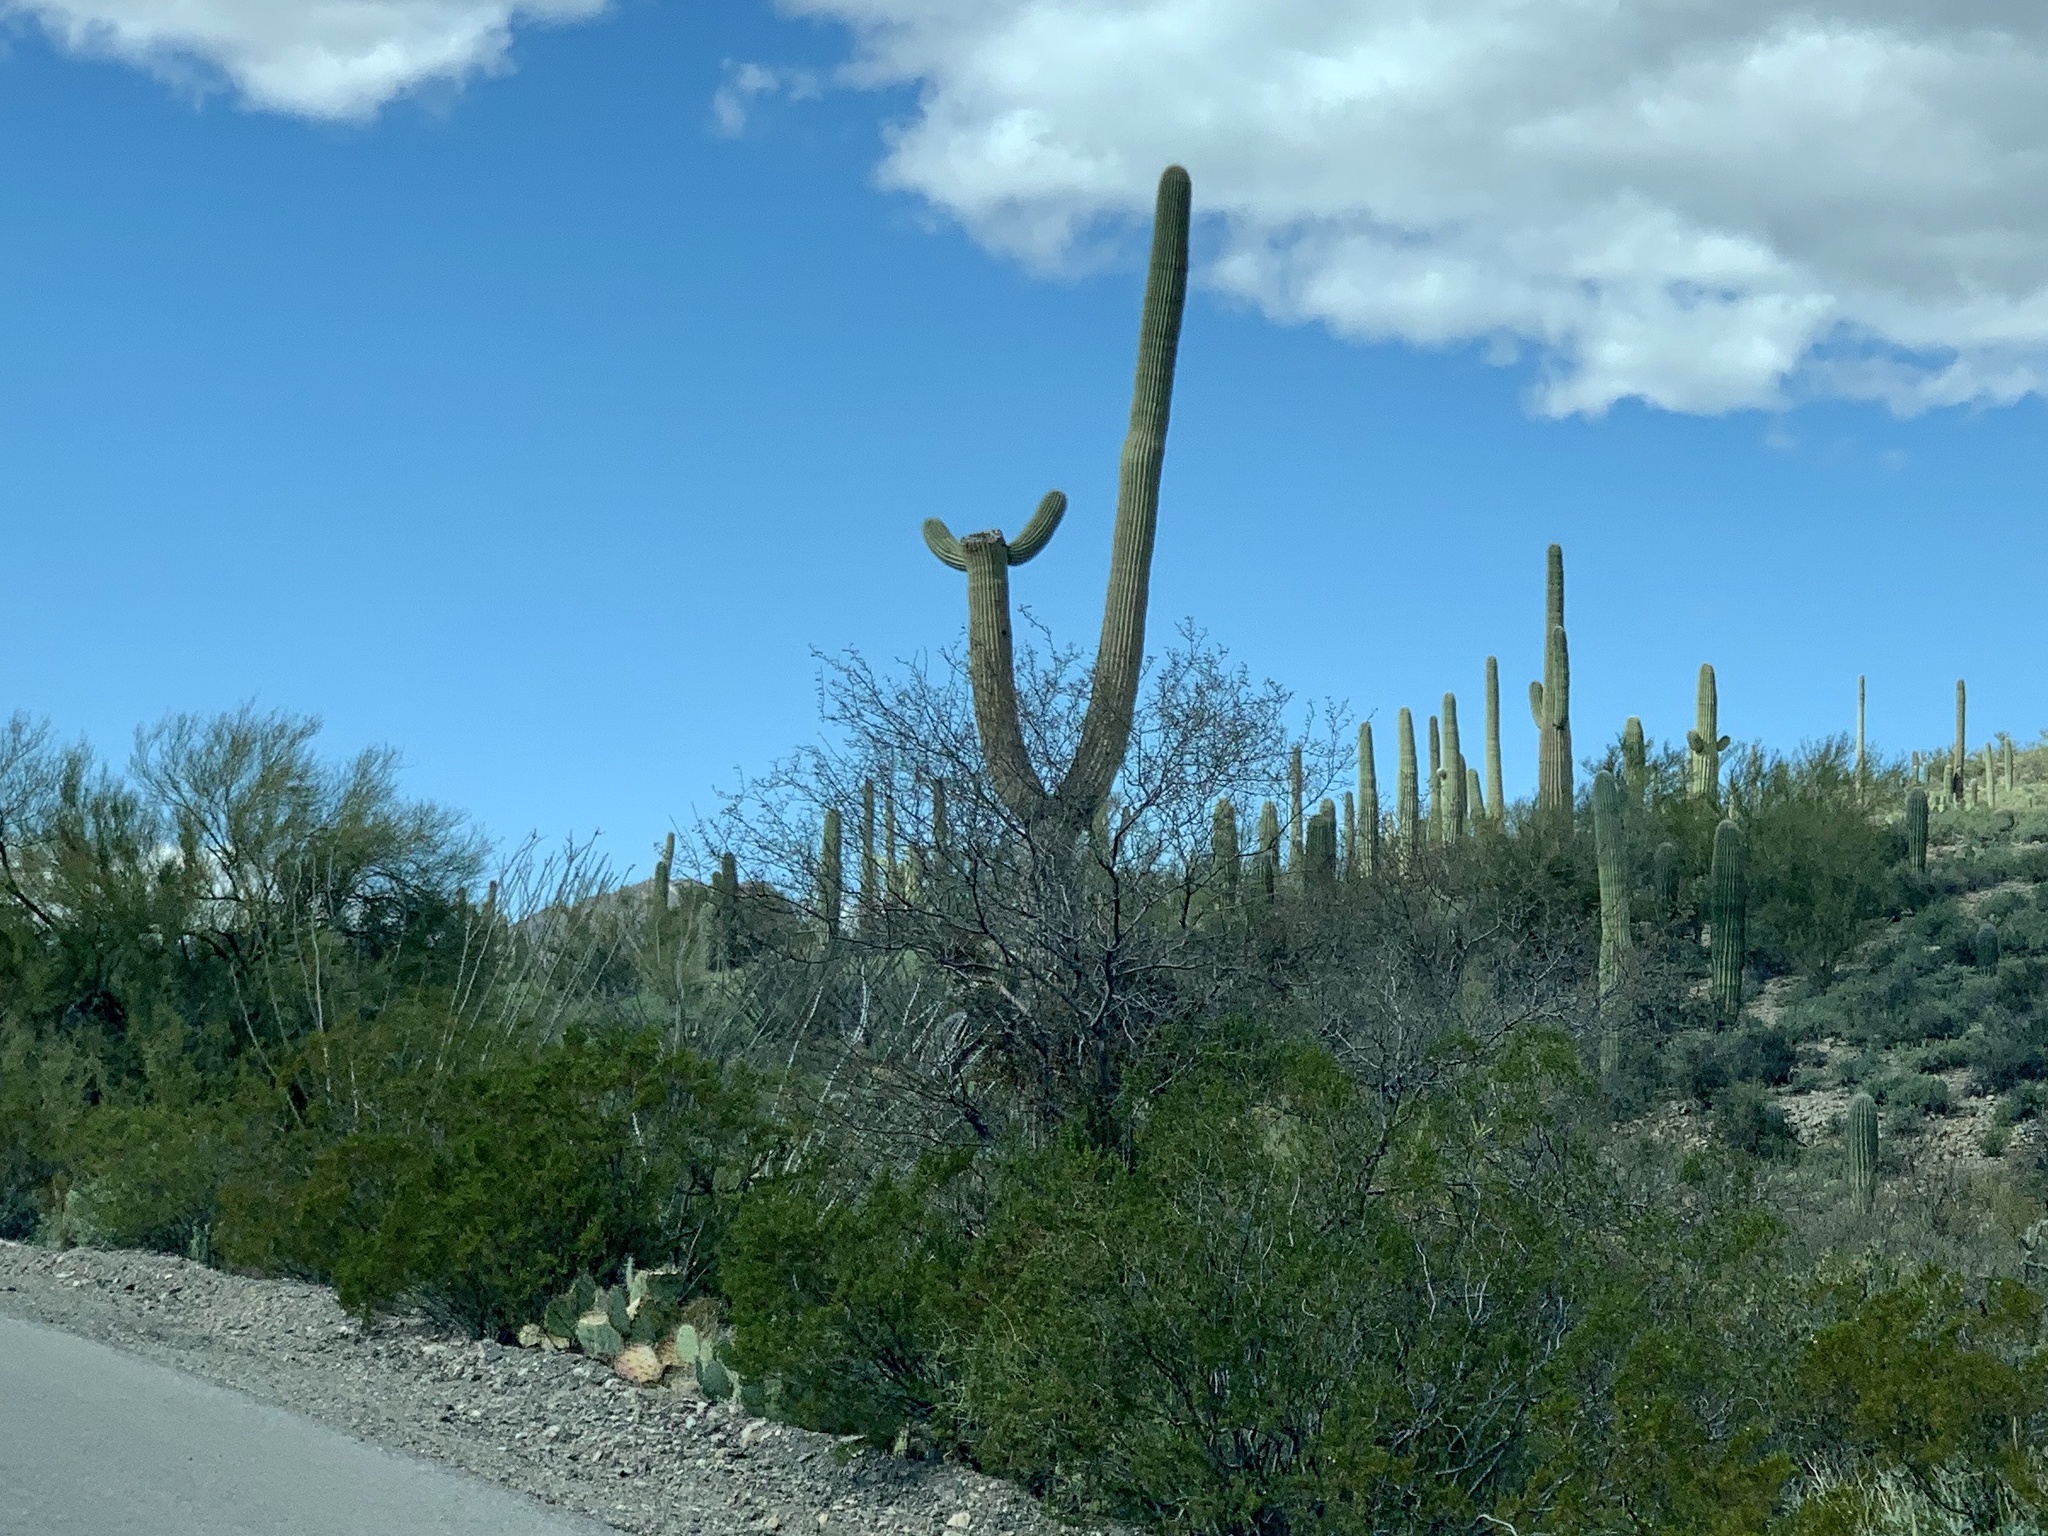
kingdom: Plantae
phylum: Tracheophyta
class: Magnoliopsida
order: Caryophyllales
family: Cactaceae
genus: Carnegiea
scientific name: Carnegiea gigantea
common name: Saguaro
